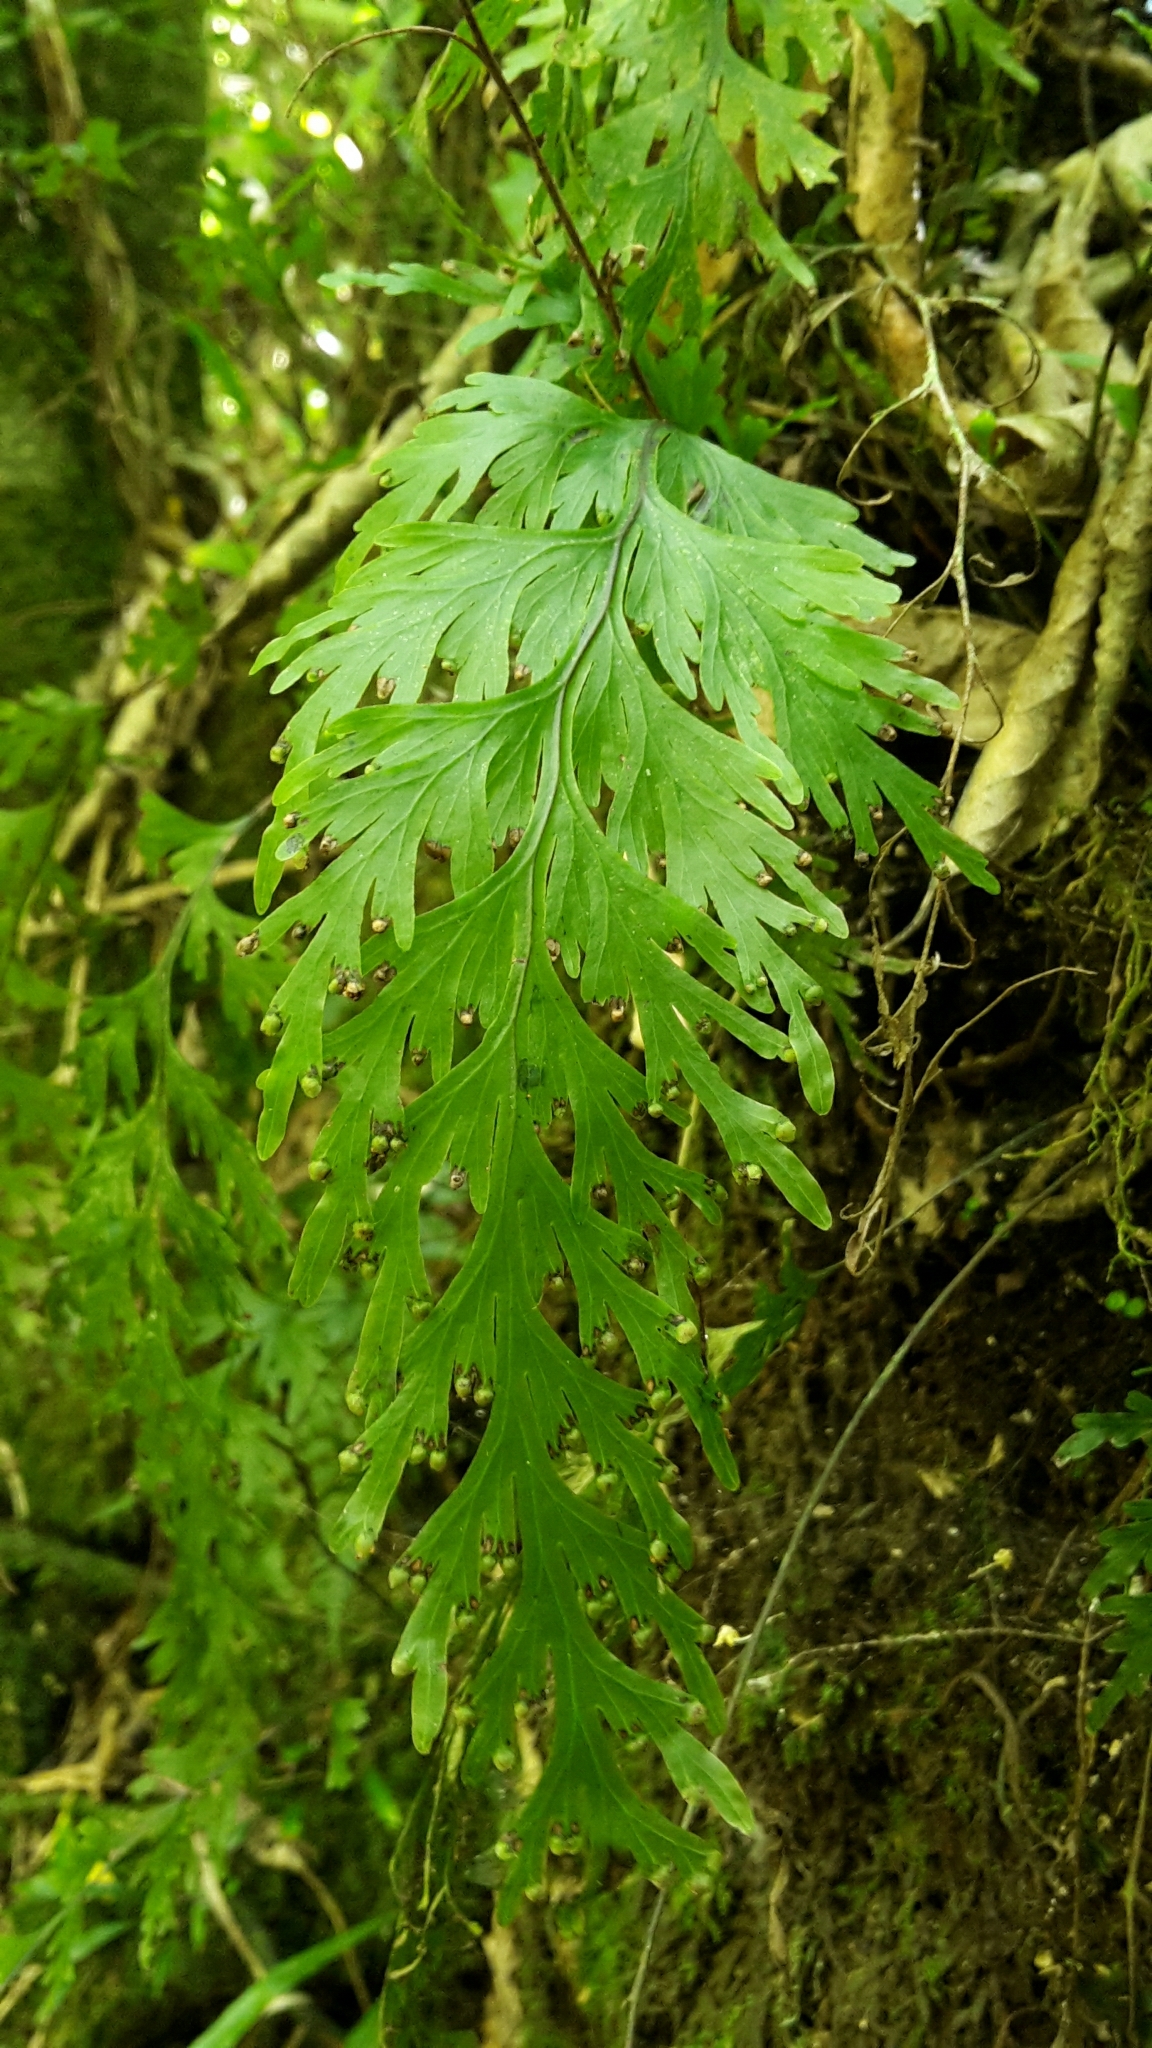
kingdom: Plantae
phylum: Tracheophyta
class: Polypodiopsida
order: Hymenophyllales
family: Hymenophyllaceae
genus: Hymenophyllum
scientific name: Hymenophyllum dilatatum
